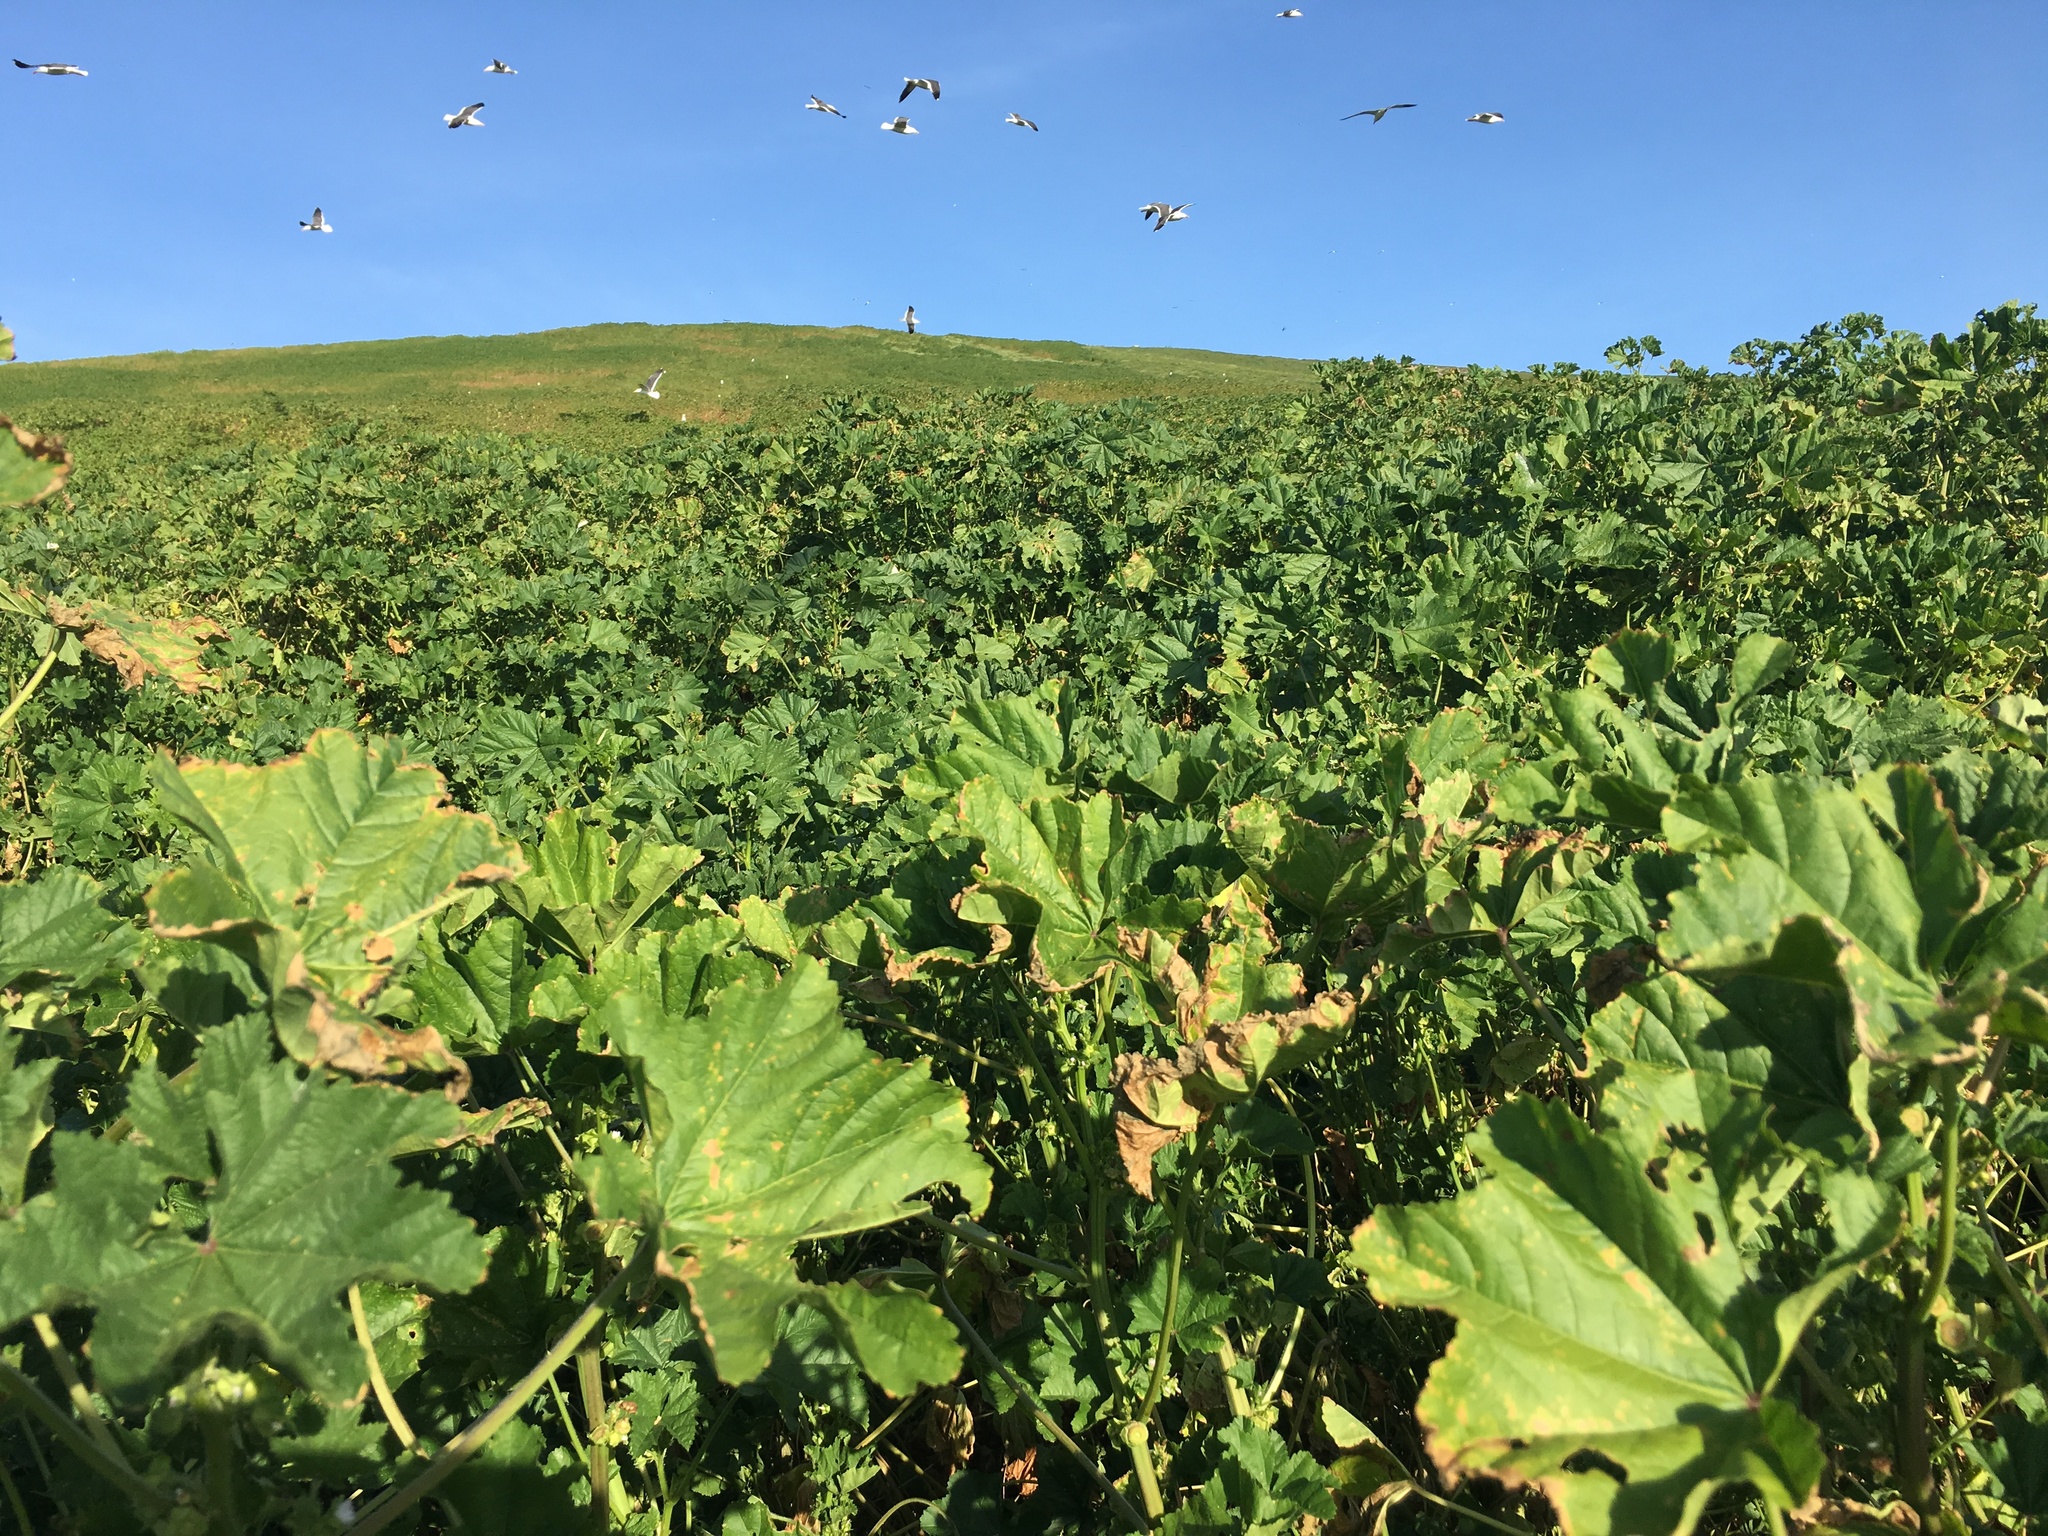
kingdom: Plantae
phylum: Tracheophyta
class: Magnoliopsida
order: Malvales
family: Malvaceae
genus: Malva
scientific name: Malva parviflora
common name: Least mallow
